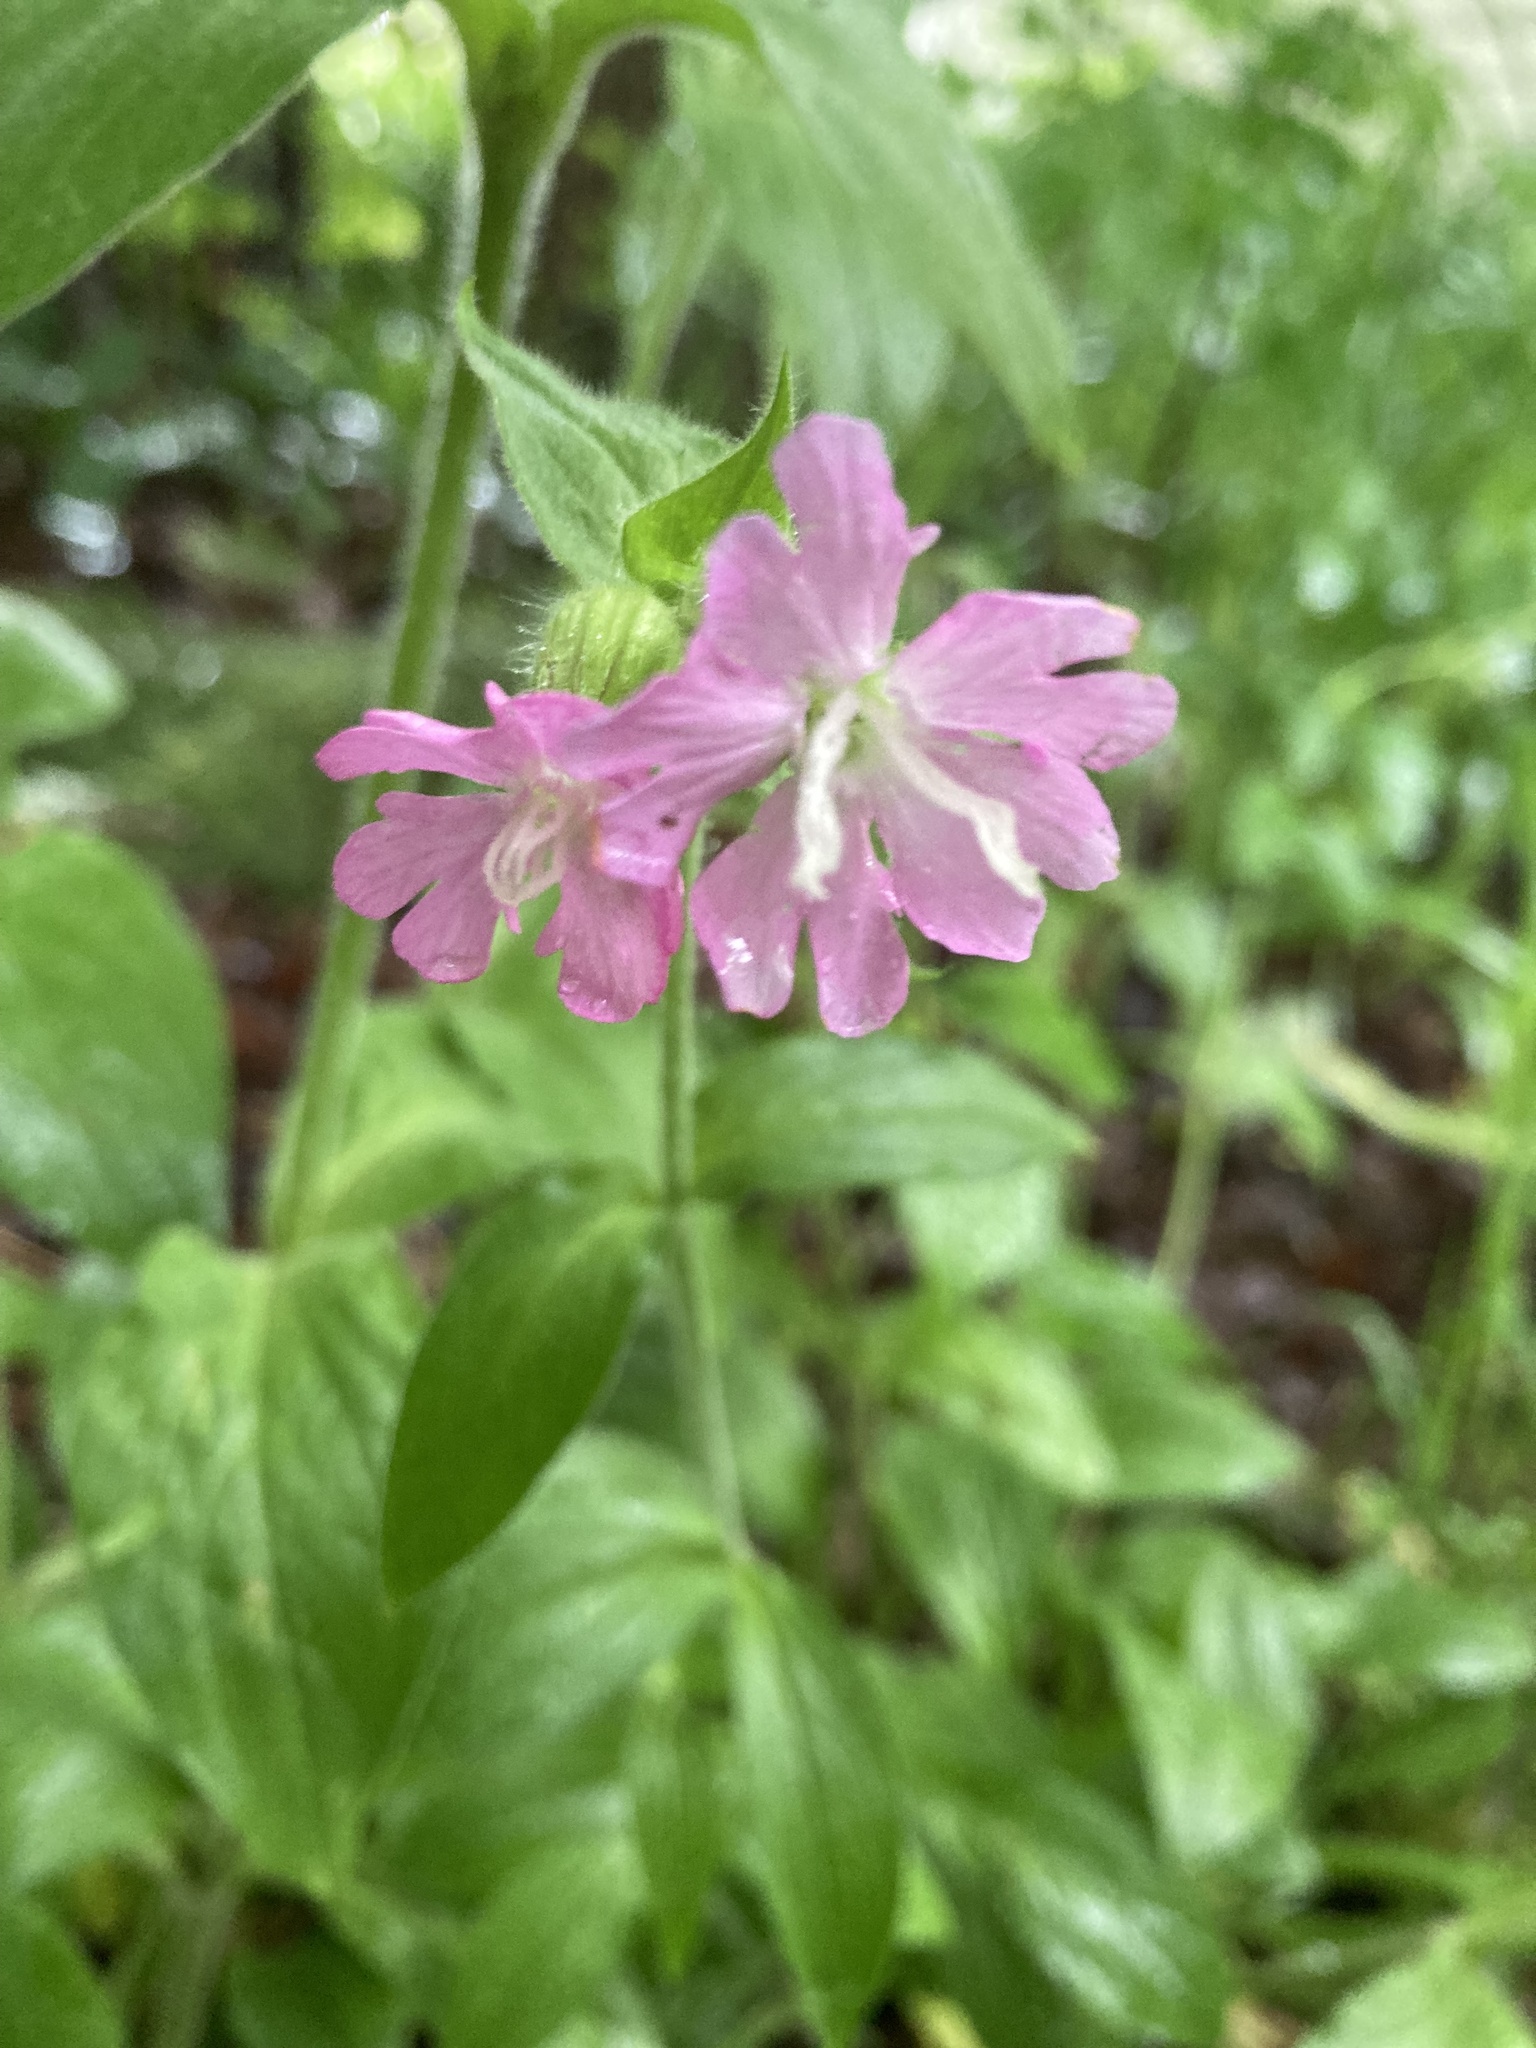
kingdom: Plantae
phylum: Tracheophyta
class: Magnoliopsida
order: Caryophyllales
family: Caryophyllaceae
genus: Silene
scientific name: Silene hampeana
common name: Catchfly
